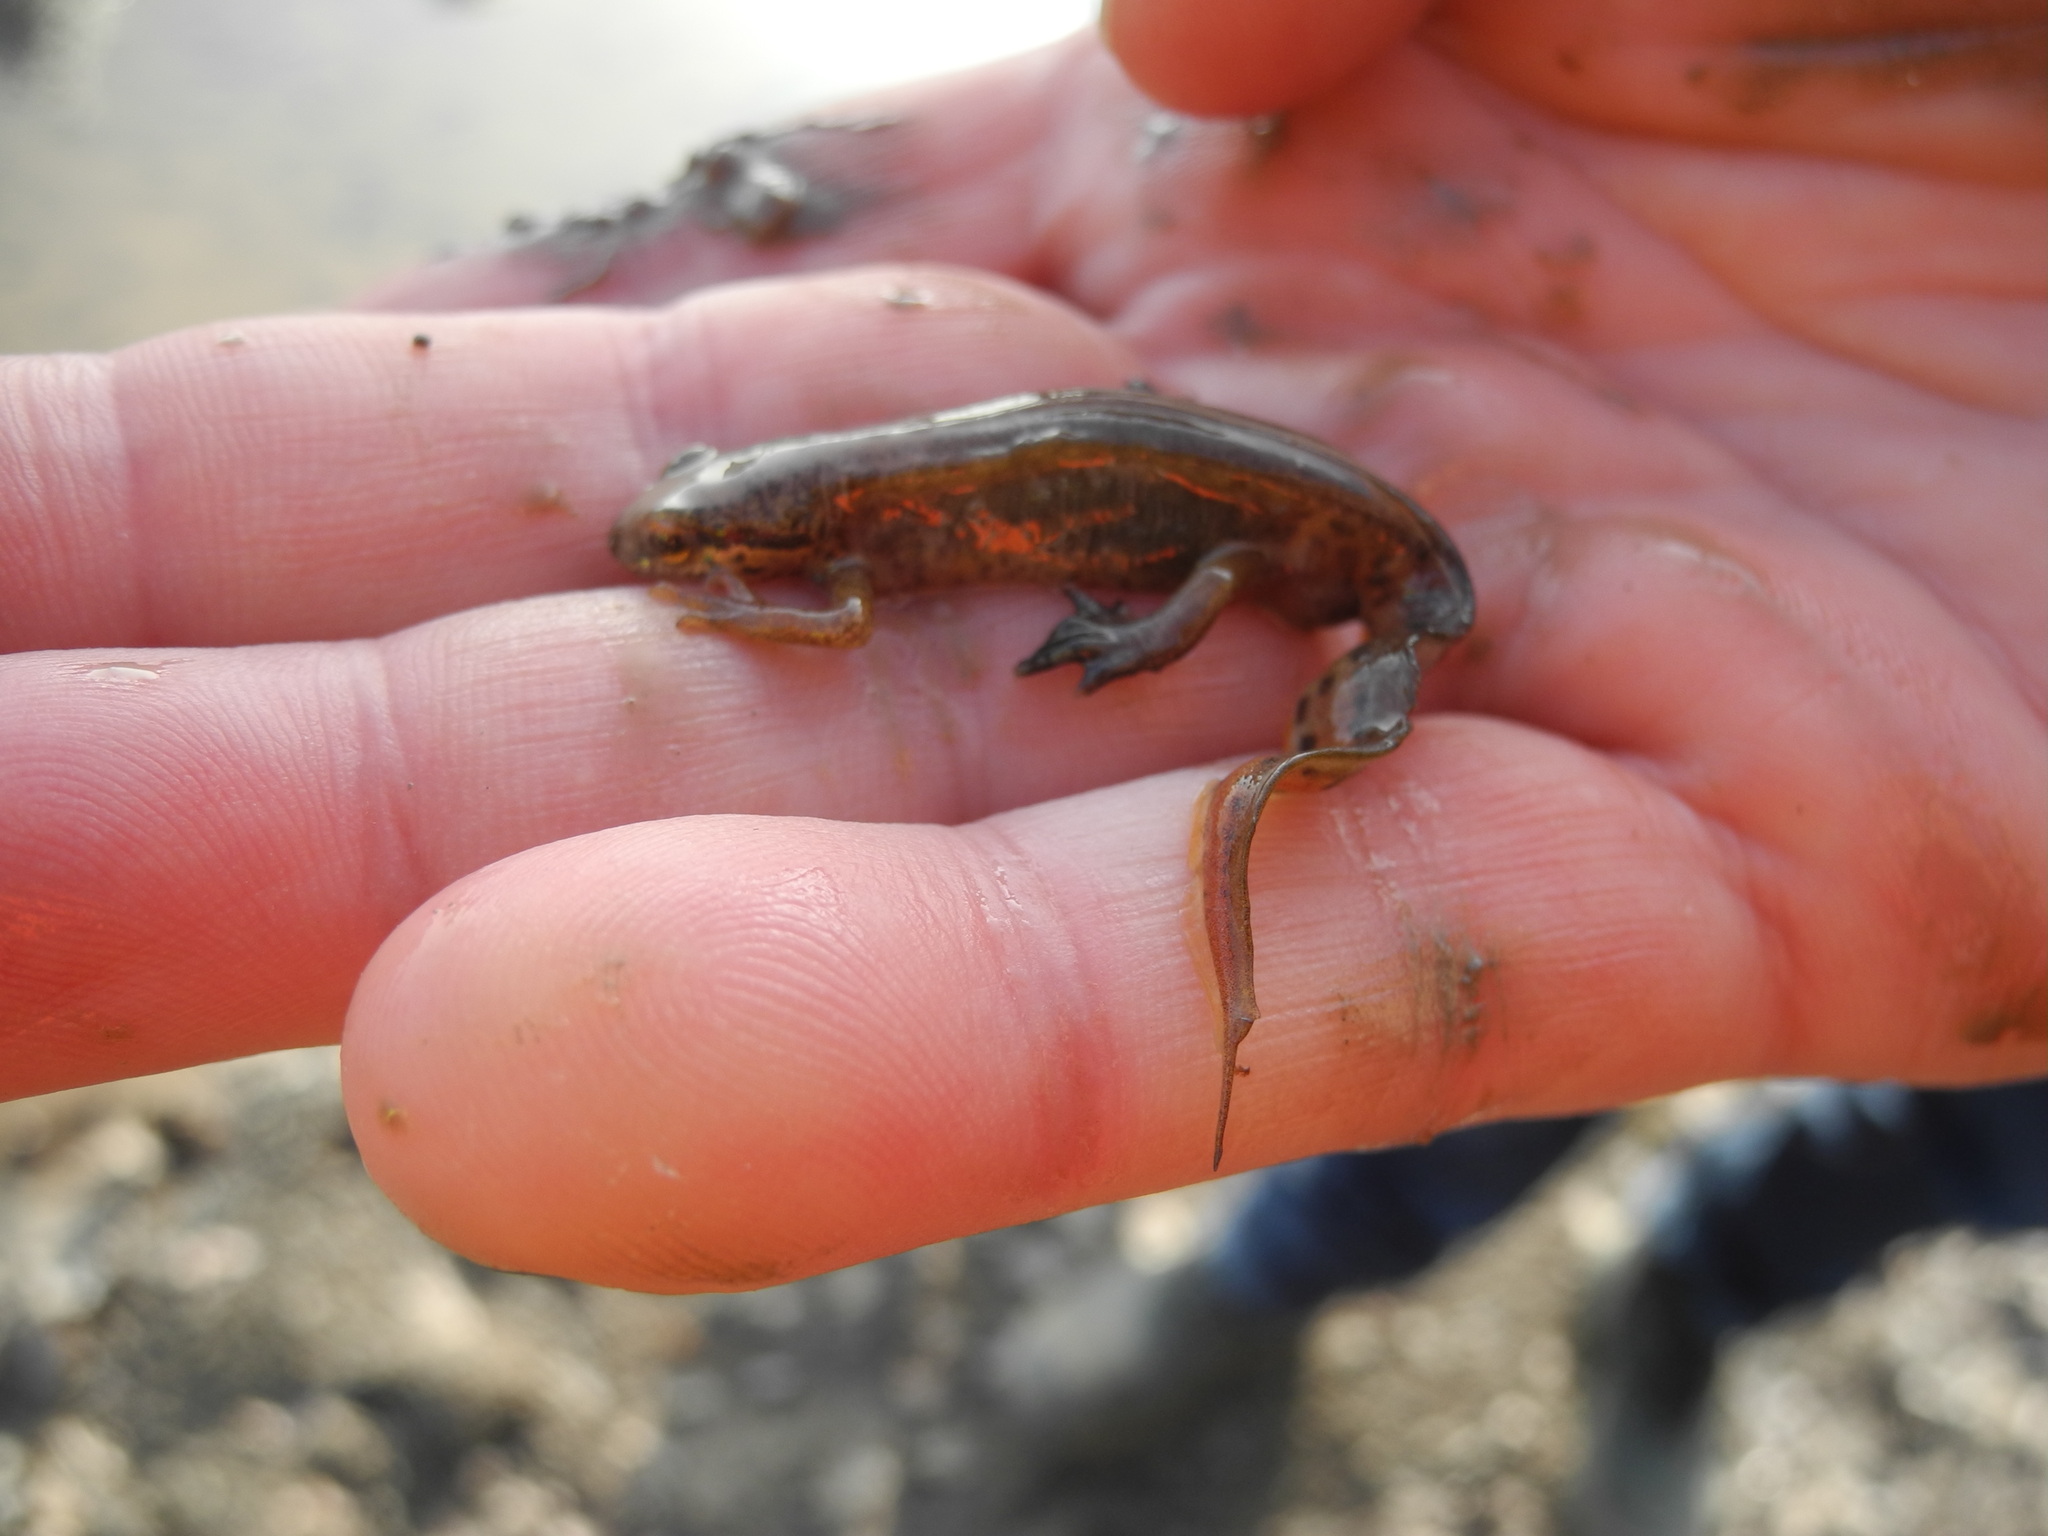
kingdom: Animalia
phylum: Chordata
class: Amphibia
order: Caudata
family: Salamandridae
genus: Lissotriton
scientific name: Lissotriton helveticus
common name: Palmate newt
